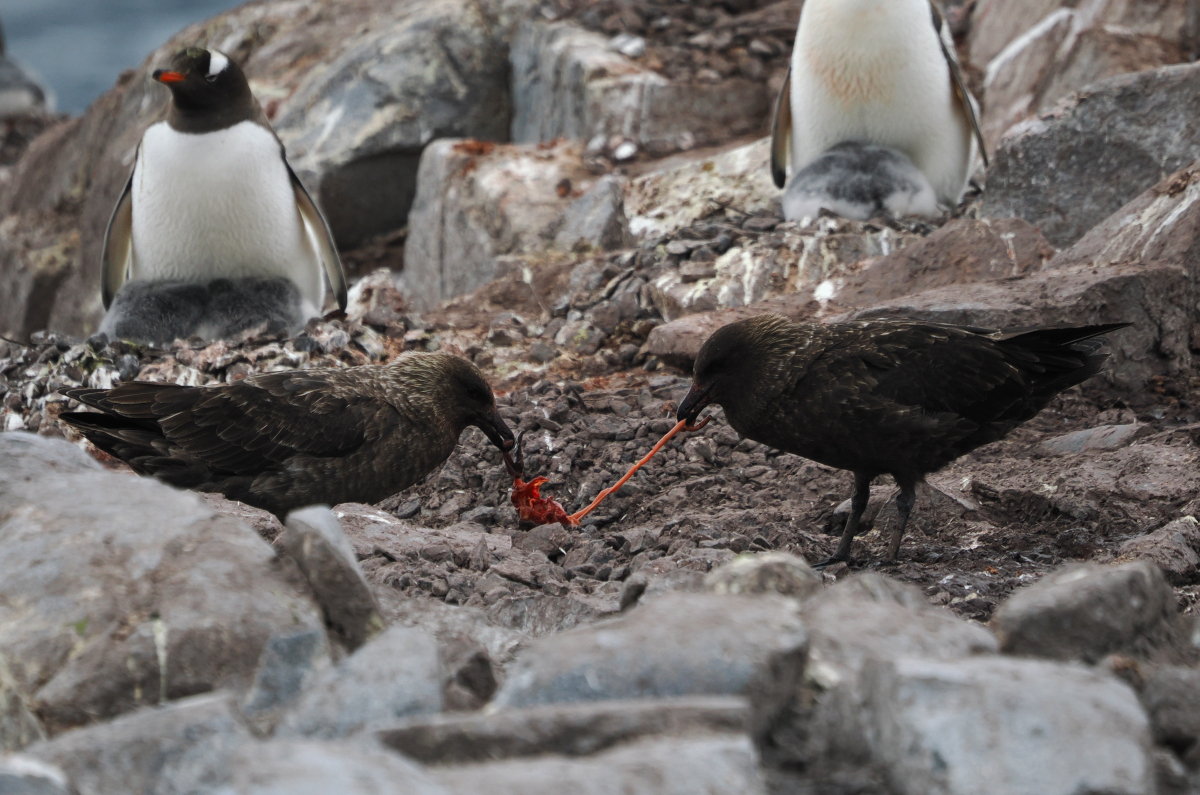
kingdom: Animalia
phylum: Chordata
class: Aves
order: Charadriiformes
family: Stercorariidae
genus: Stercorarius
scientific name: Stercorarius antarcticus
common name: Brown skua
